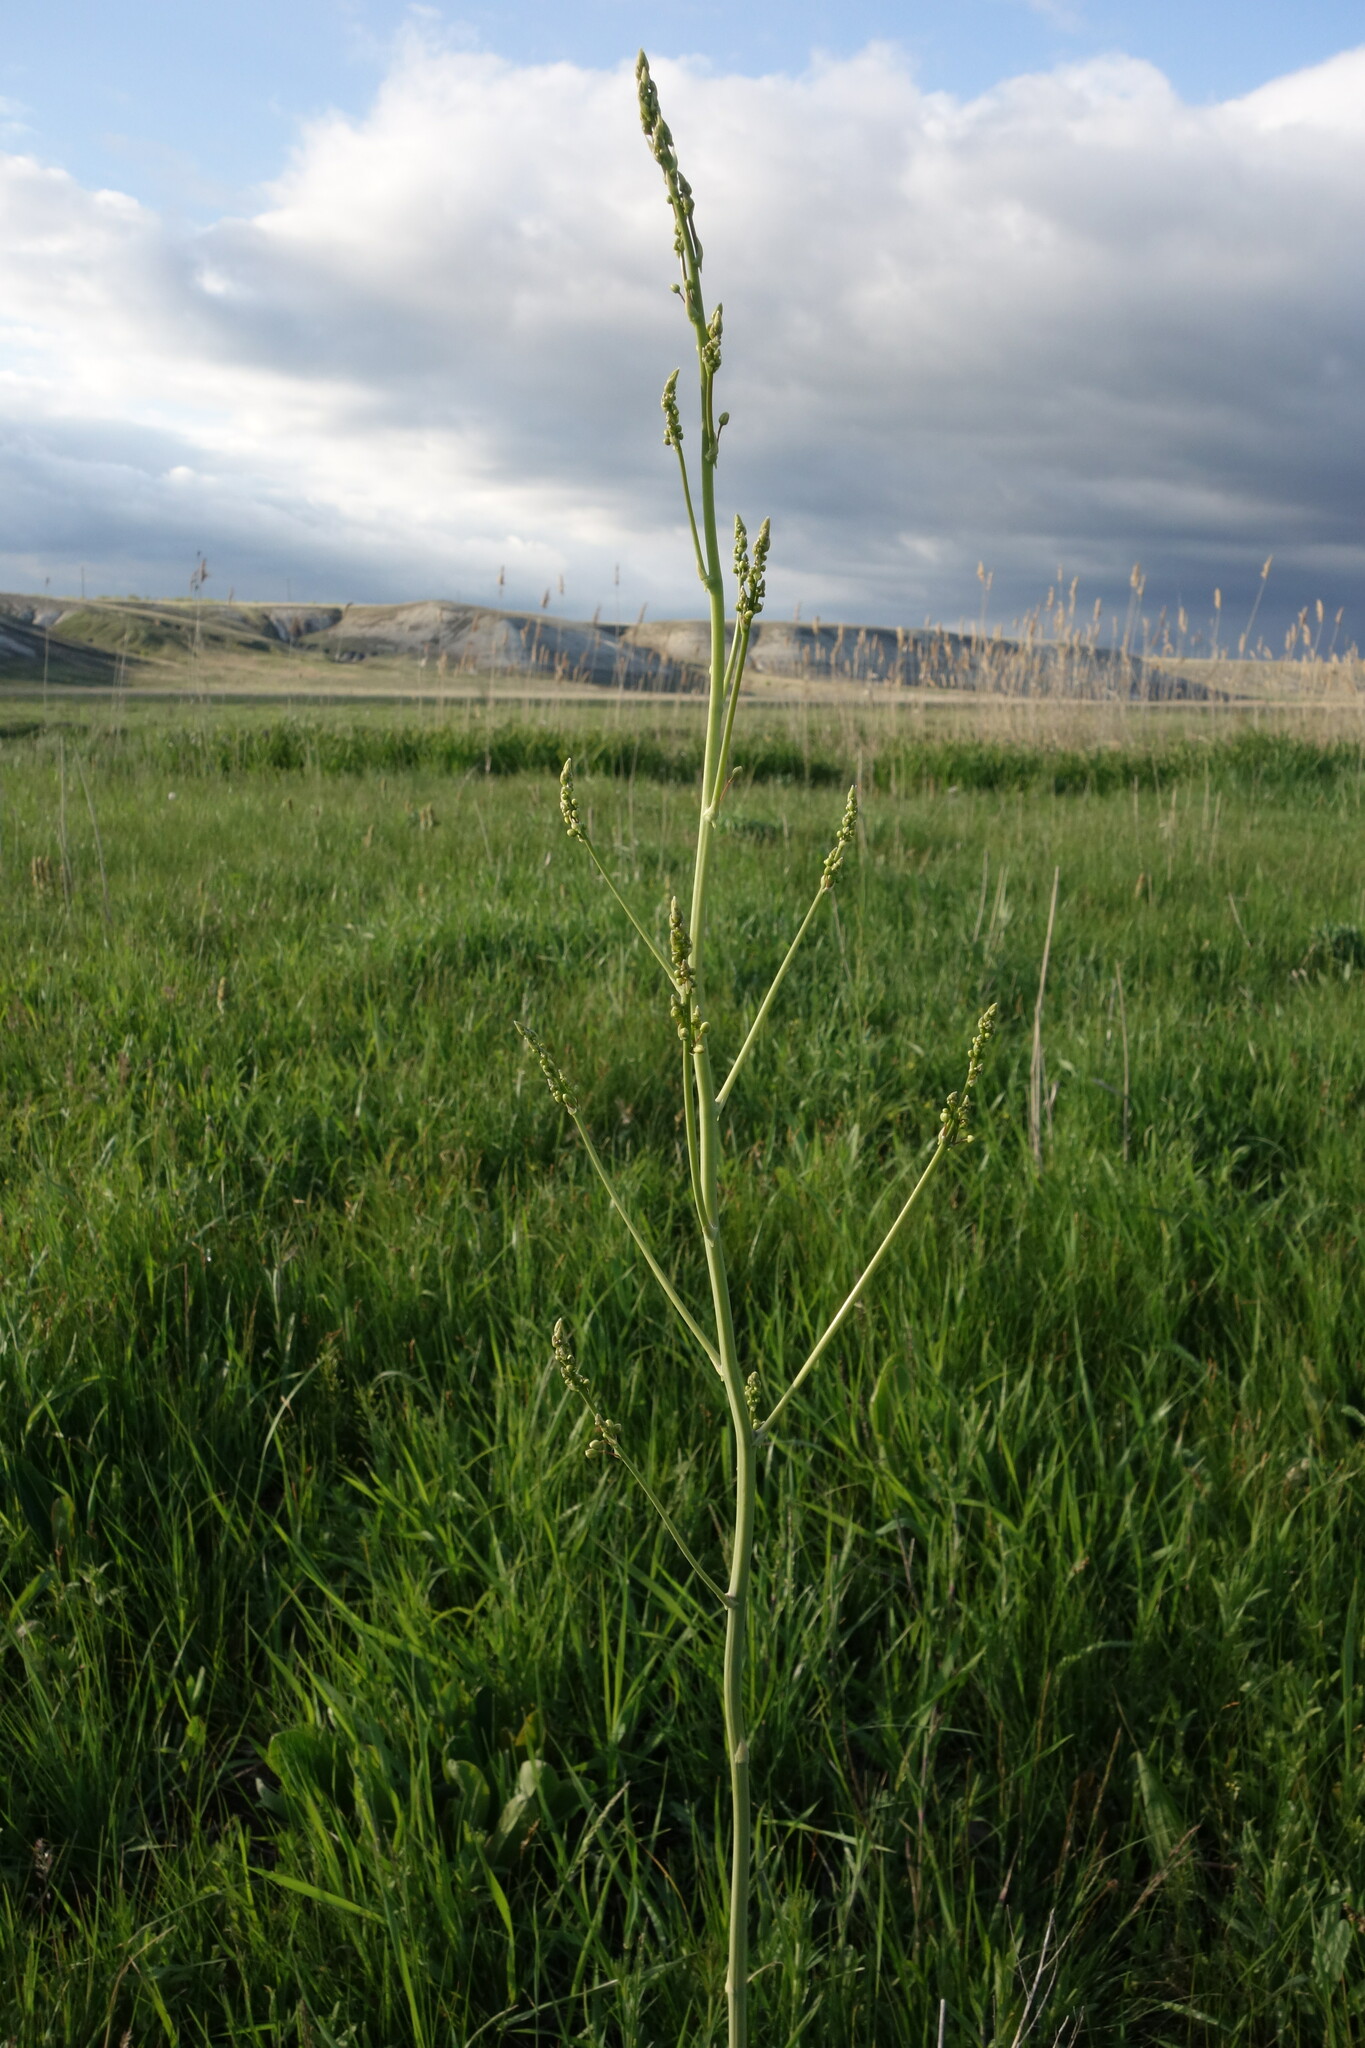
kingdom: Plantae
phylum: Tracheophyta
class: Liliopsida
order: Asparagales
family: Asparagaceae
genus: Asparagus
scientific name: Asparagus officinalis
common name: Garden asparagus
